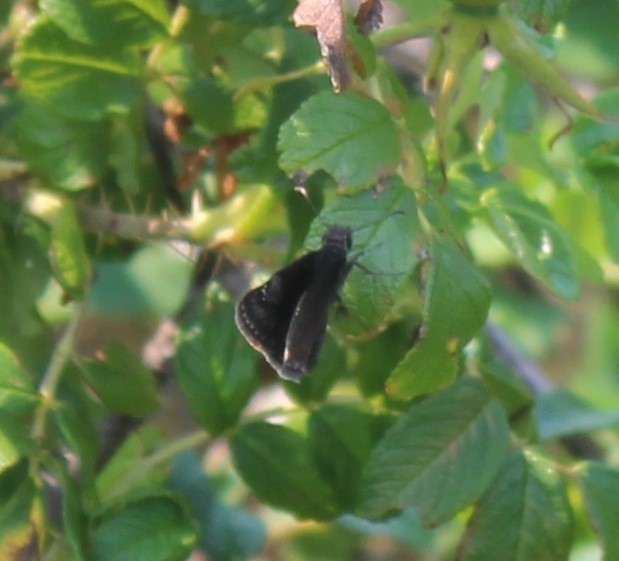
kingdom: Animalia
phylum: Arthropoda
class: Insecta
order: Lepidoptera
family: Hesperiidae
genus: Erynnis
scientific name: Erynnis baptisiae
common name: Wild indigo duskywing
